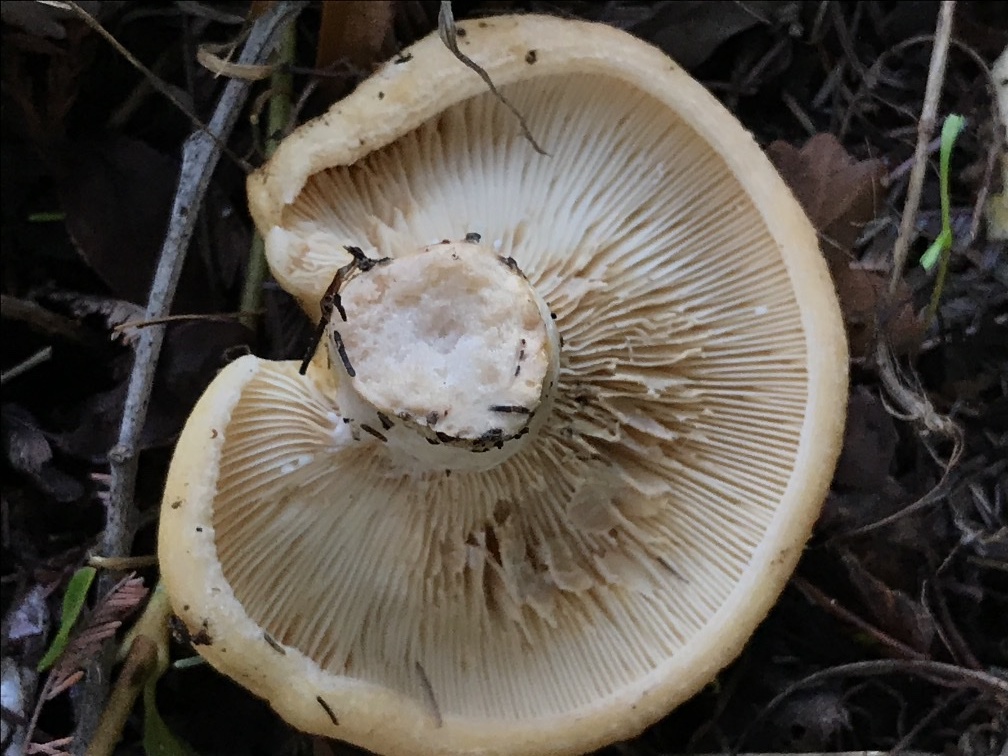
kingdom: Fungi
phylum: Basidiomycota
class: Agaricomycetes
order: Russulales
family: Russulaceae
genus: Lactarius
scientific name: Lactarius alnicola
